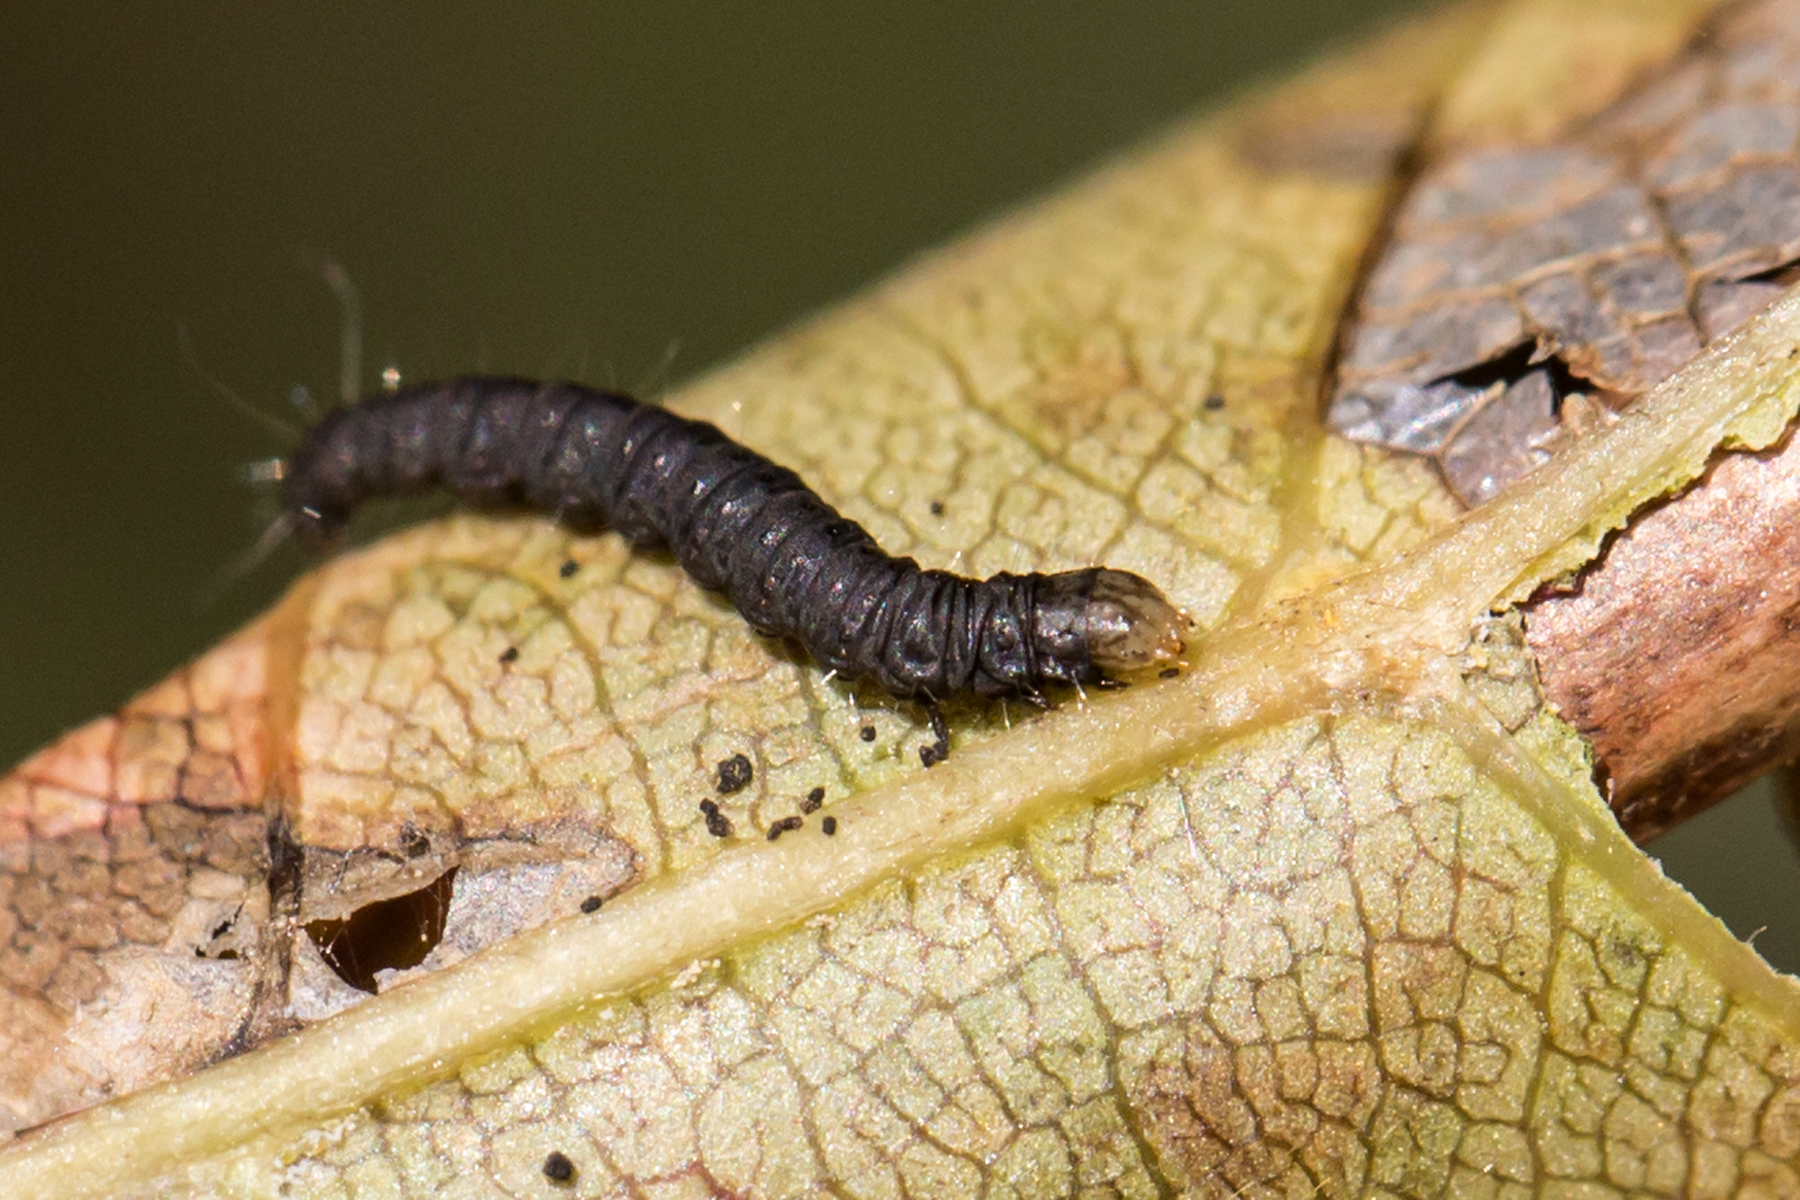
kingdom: Animalia
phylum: Arthropoda
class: Insecta
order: Lepidoptera
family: Pyralidae
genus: Actrix
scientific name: Actrix nyssaecolella
